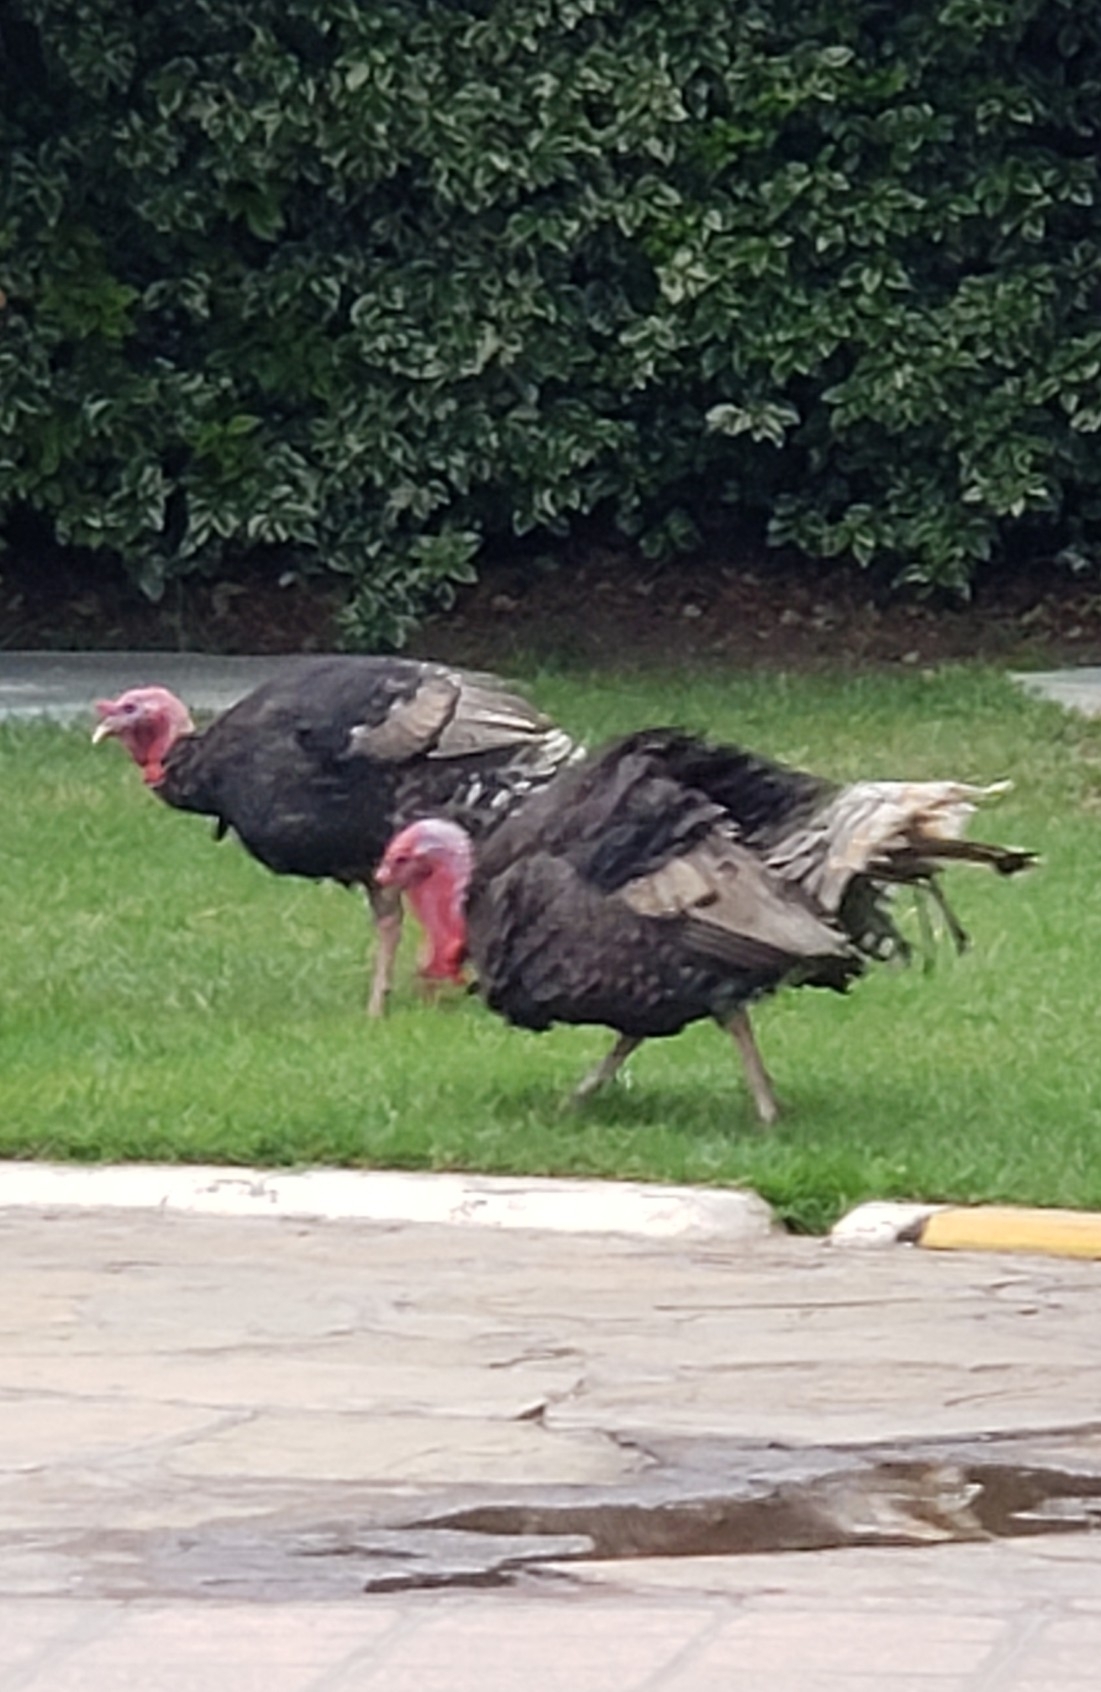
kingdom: Animalia
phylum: Chordata
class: Aves
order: Galliformes
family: Phasianidae
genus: Meleagris
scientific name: Meleagris gallopavo
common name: Wild turkey
